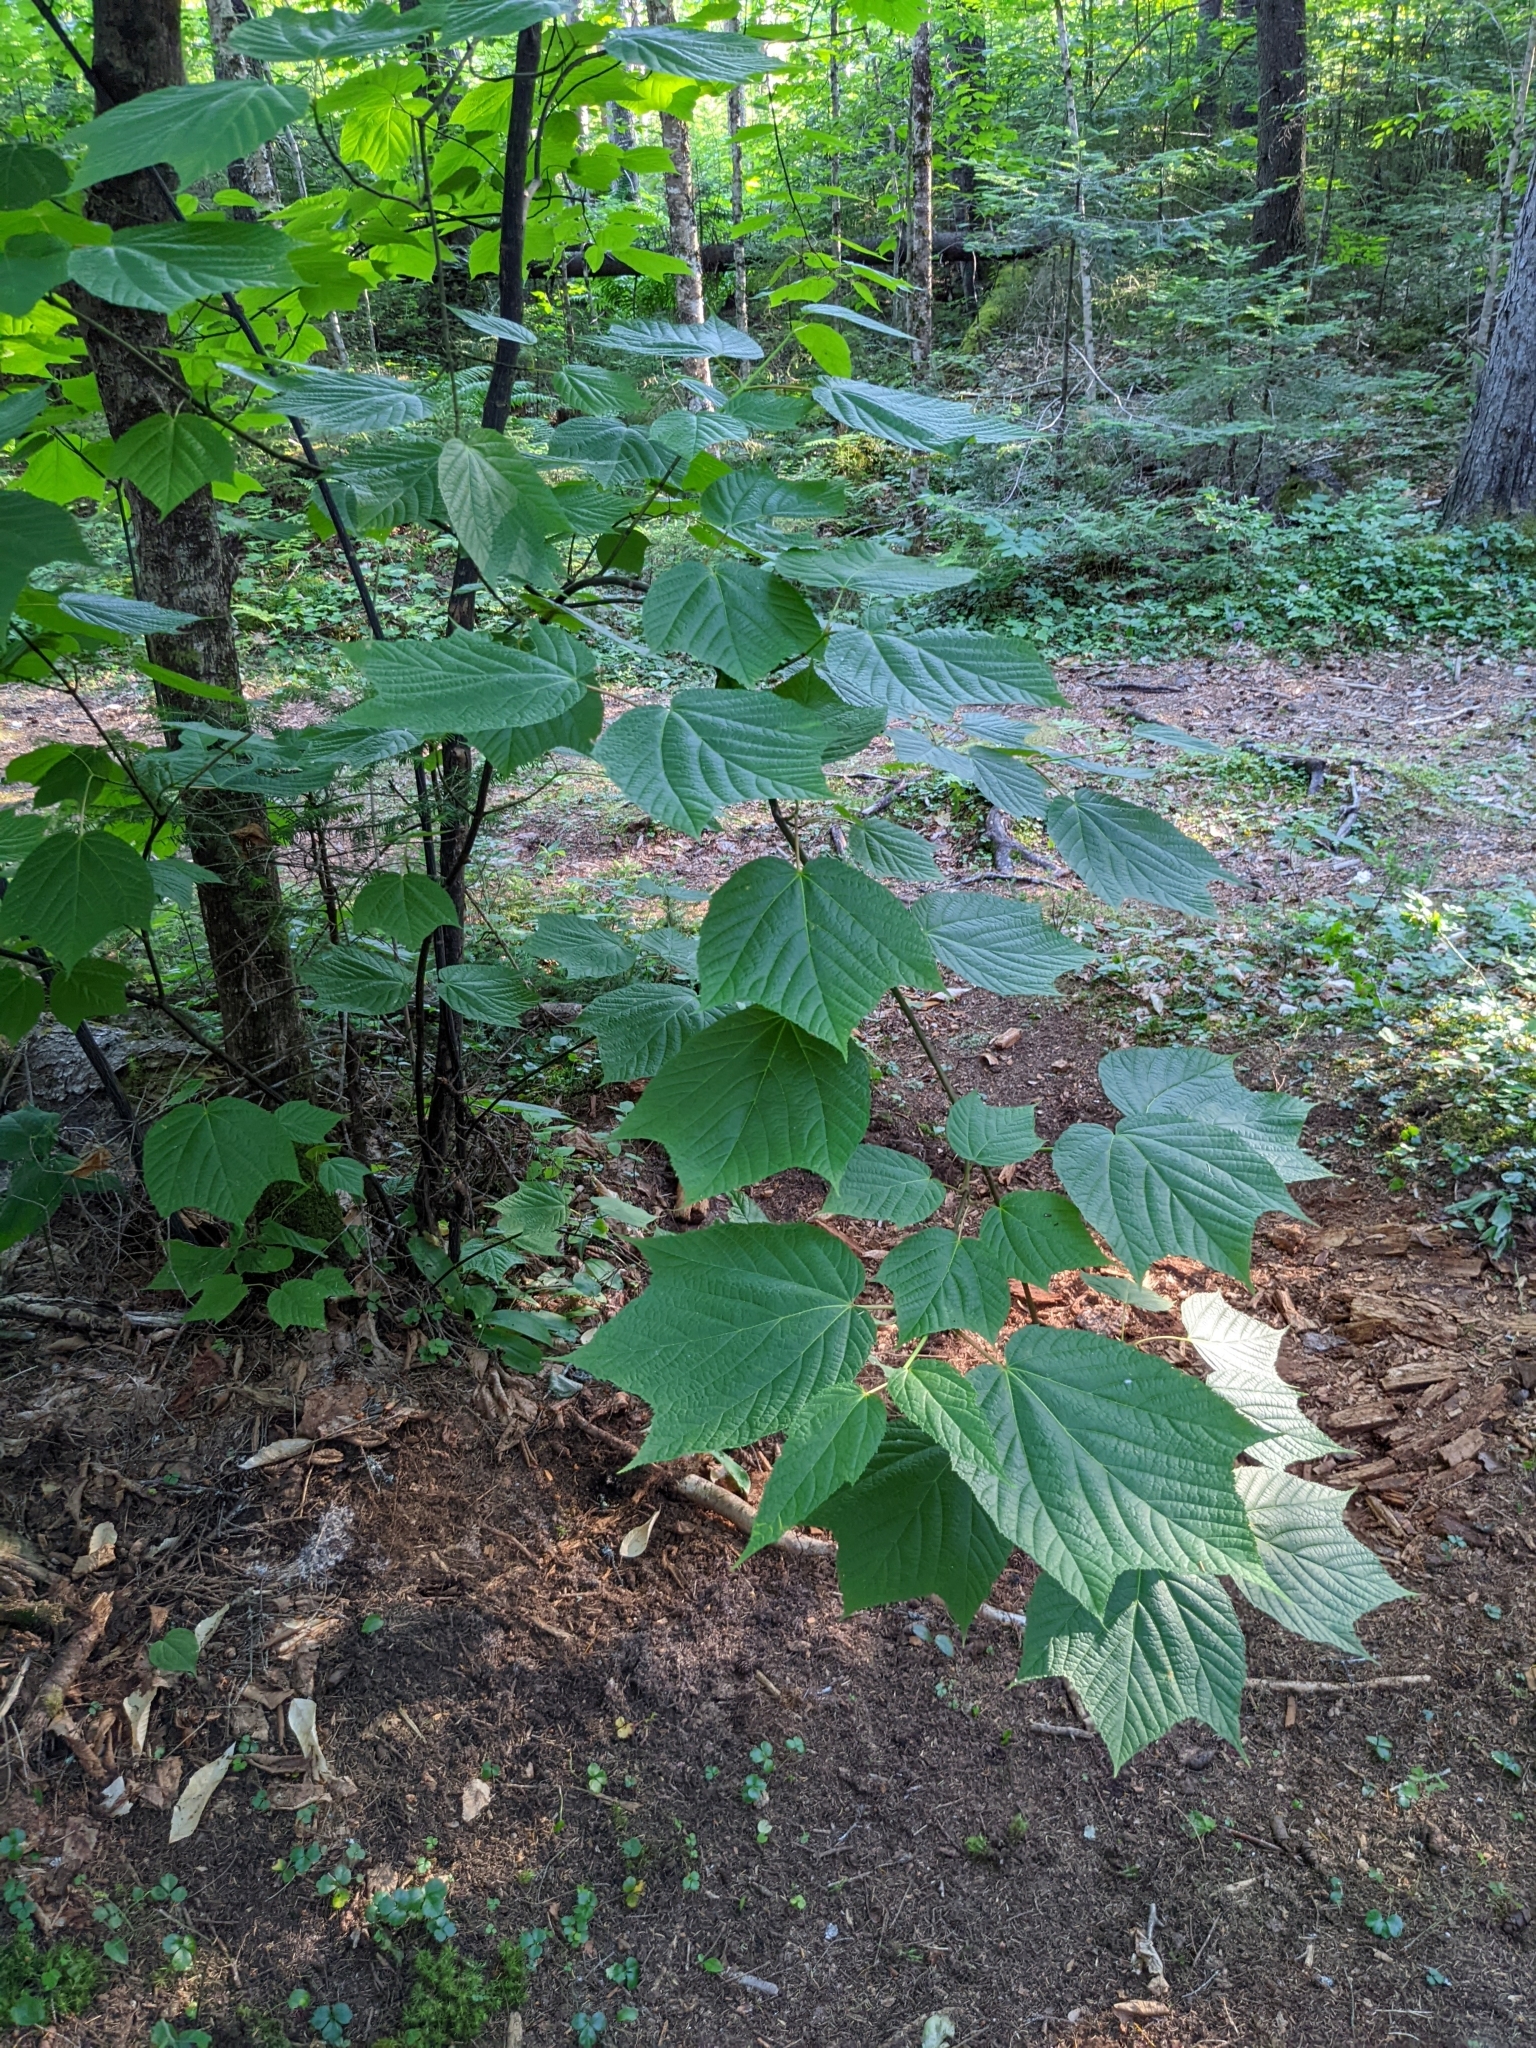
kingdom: Plantae
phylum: Tracheophyta
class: Magnoliopsida
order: Sapindales
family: Sapindaceae
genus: Acer
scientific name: Acer pensylvanicum
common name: Moosewood
